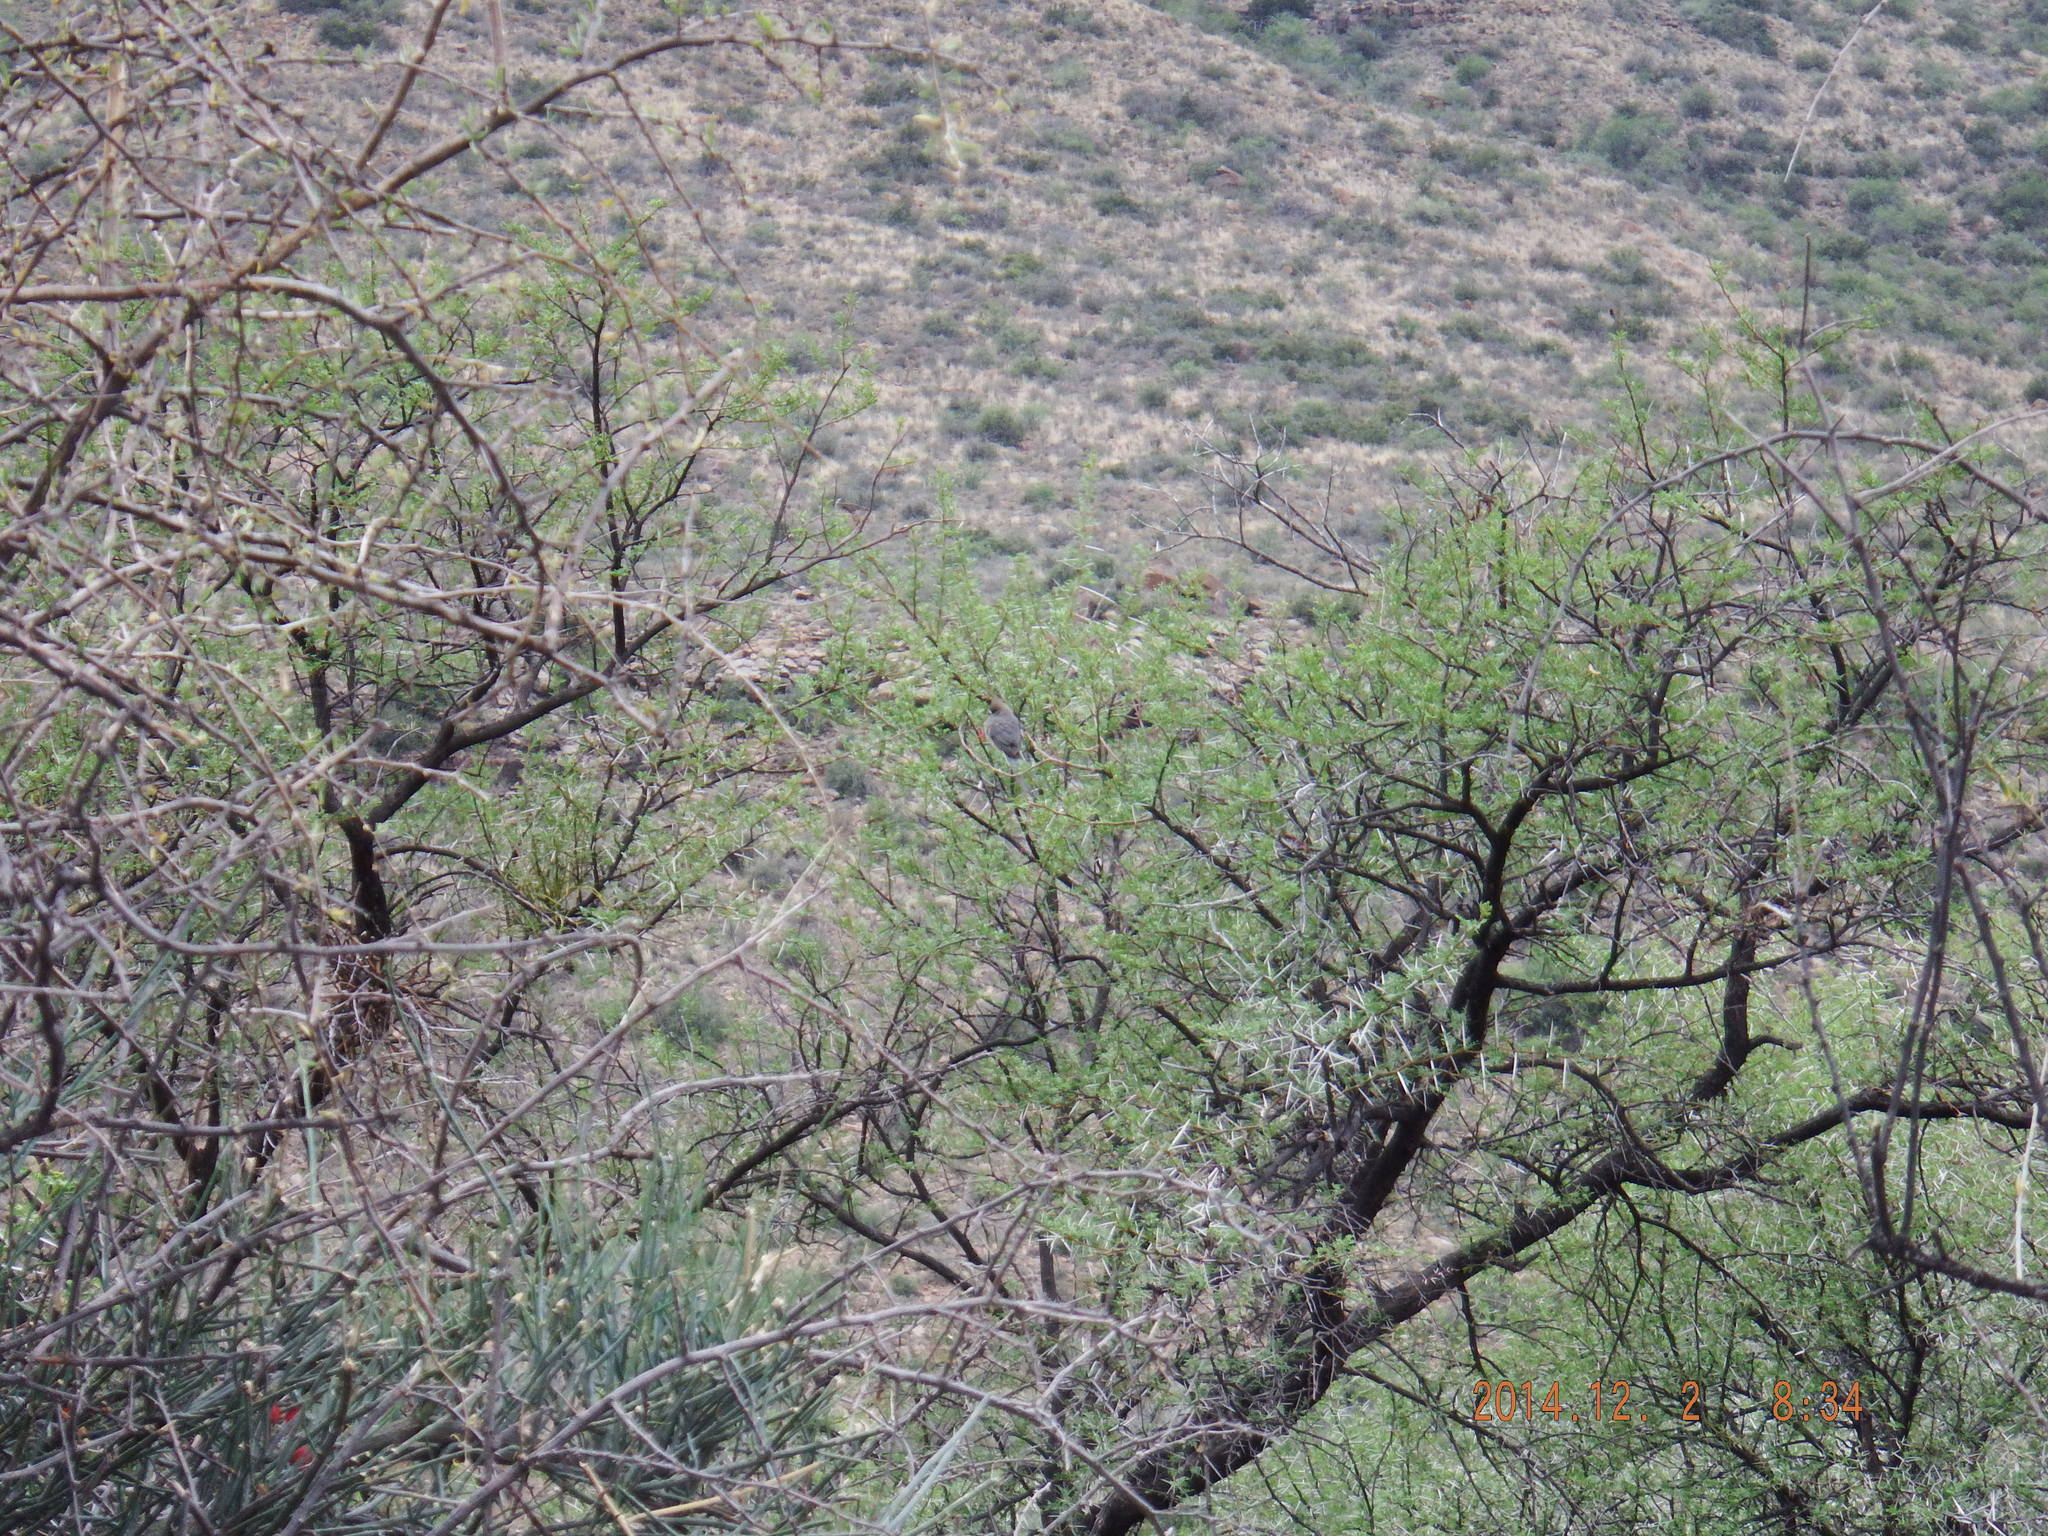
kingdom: Animalia
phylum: Chordata
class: Aves
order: Coliiformes
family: Coliidae
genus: Colius
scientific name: Colius colius
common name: White-backed mousebird
